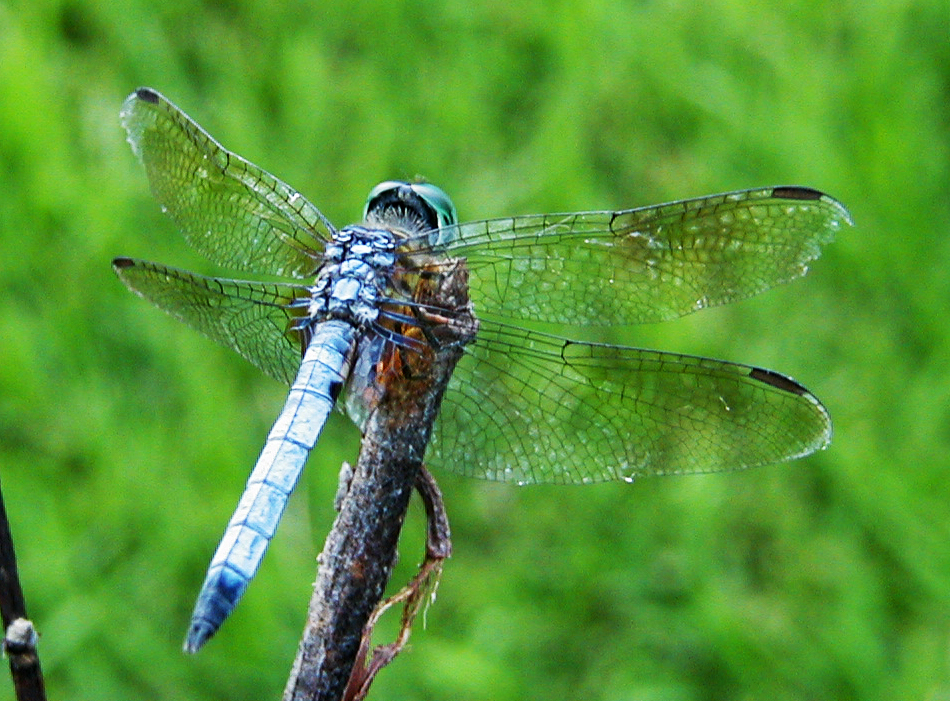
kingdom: Animalia
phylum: Arthropoda
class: Insecta
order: Odonata
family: Libellulidae
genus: Pachydiplax
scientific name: Pachydiplax longipennis
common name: Blue dasher
